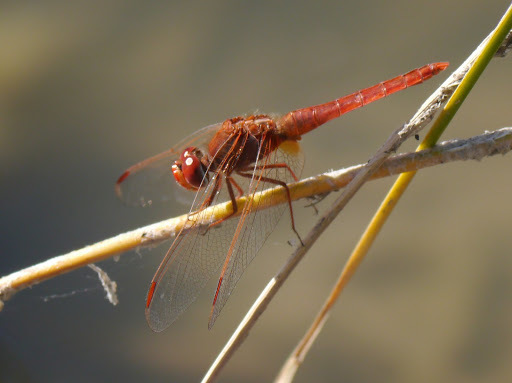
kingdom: Animalia
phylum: Arthropoda
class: Insecta
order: Odonata
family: Libellulidae
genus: Crocothemis
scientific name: Crocothemis erythraea
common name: Scarlet dragonfly
